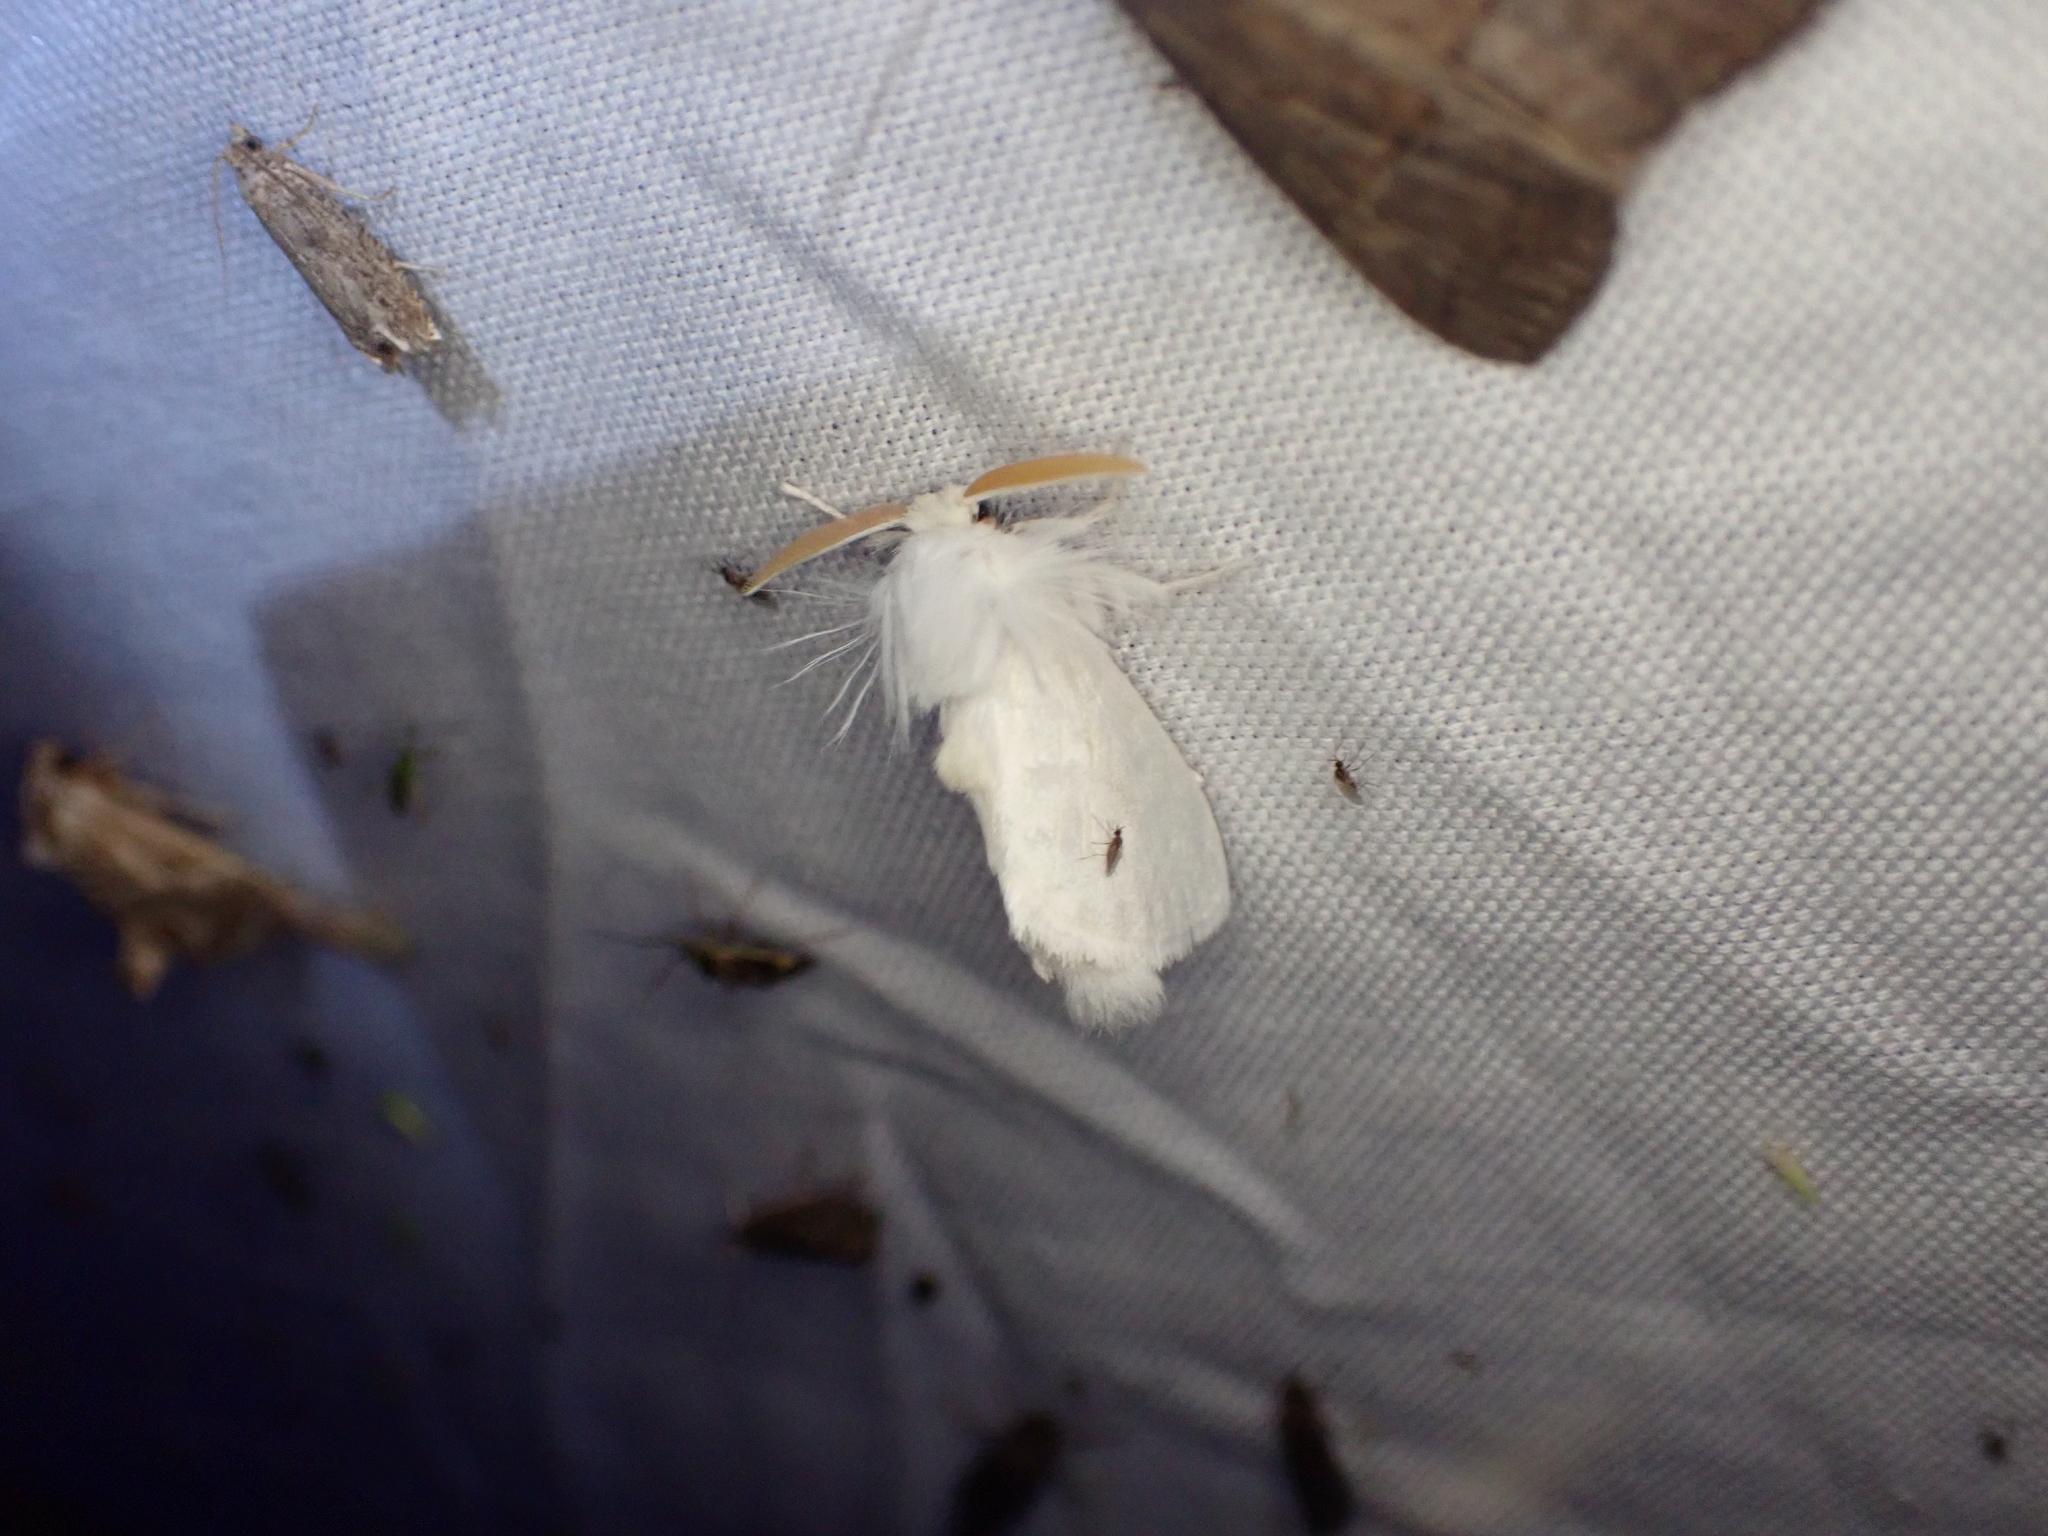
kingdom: Animalia
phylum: Arthropoda
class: Insecta
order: Lepidoptera
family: Megalopygidae
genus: Norape
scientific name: Norape cretata
